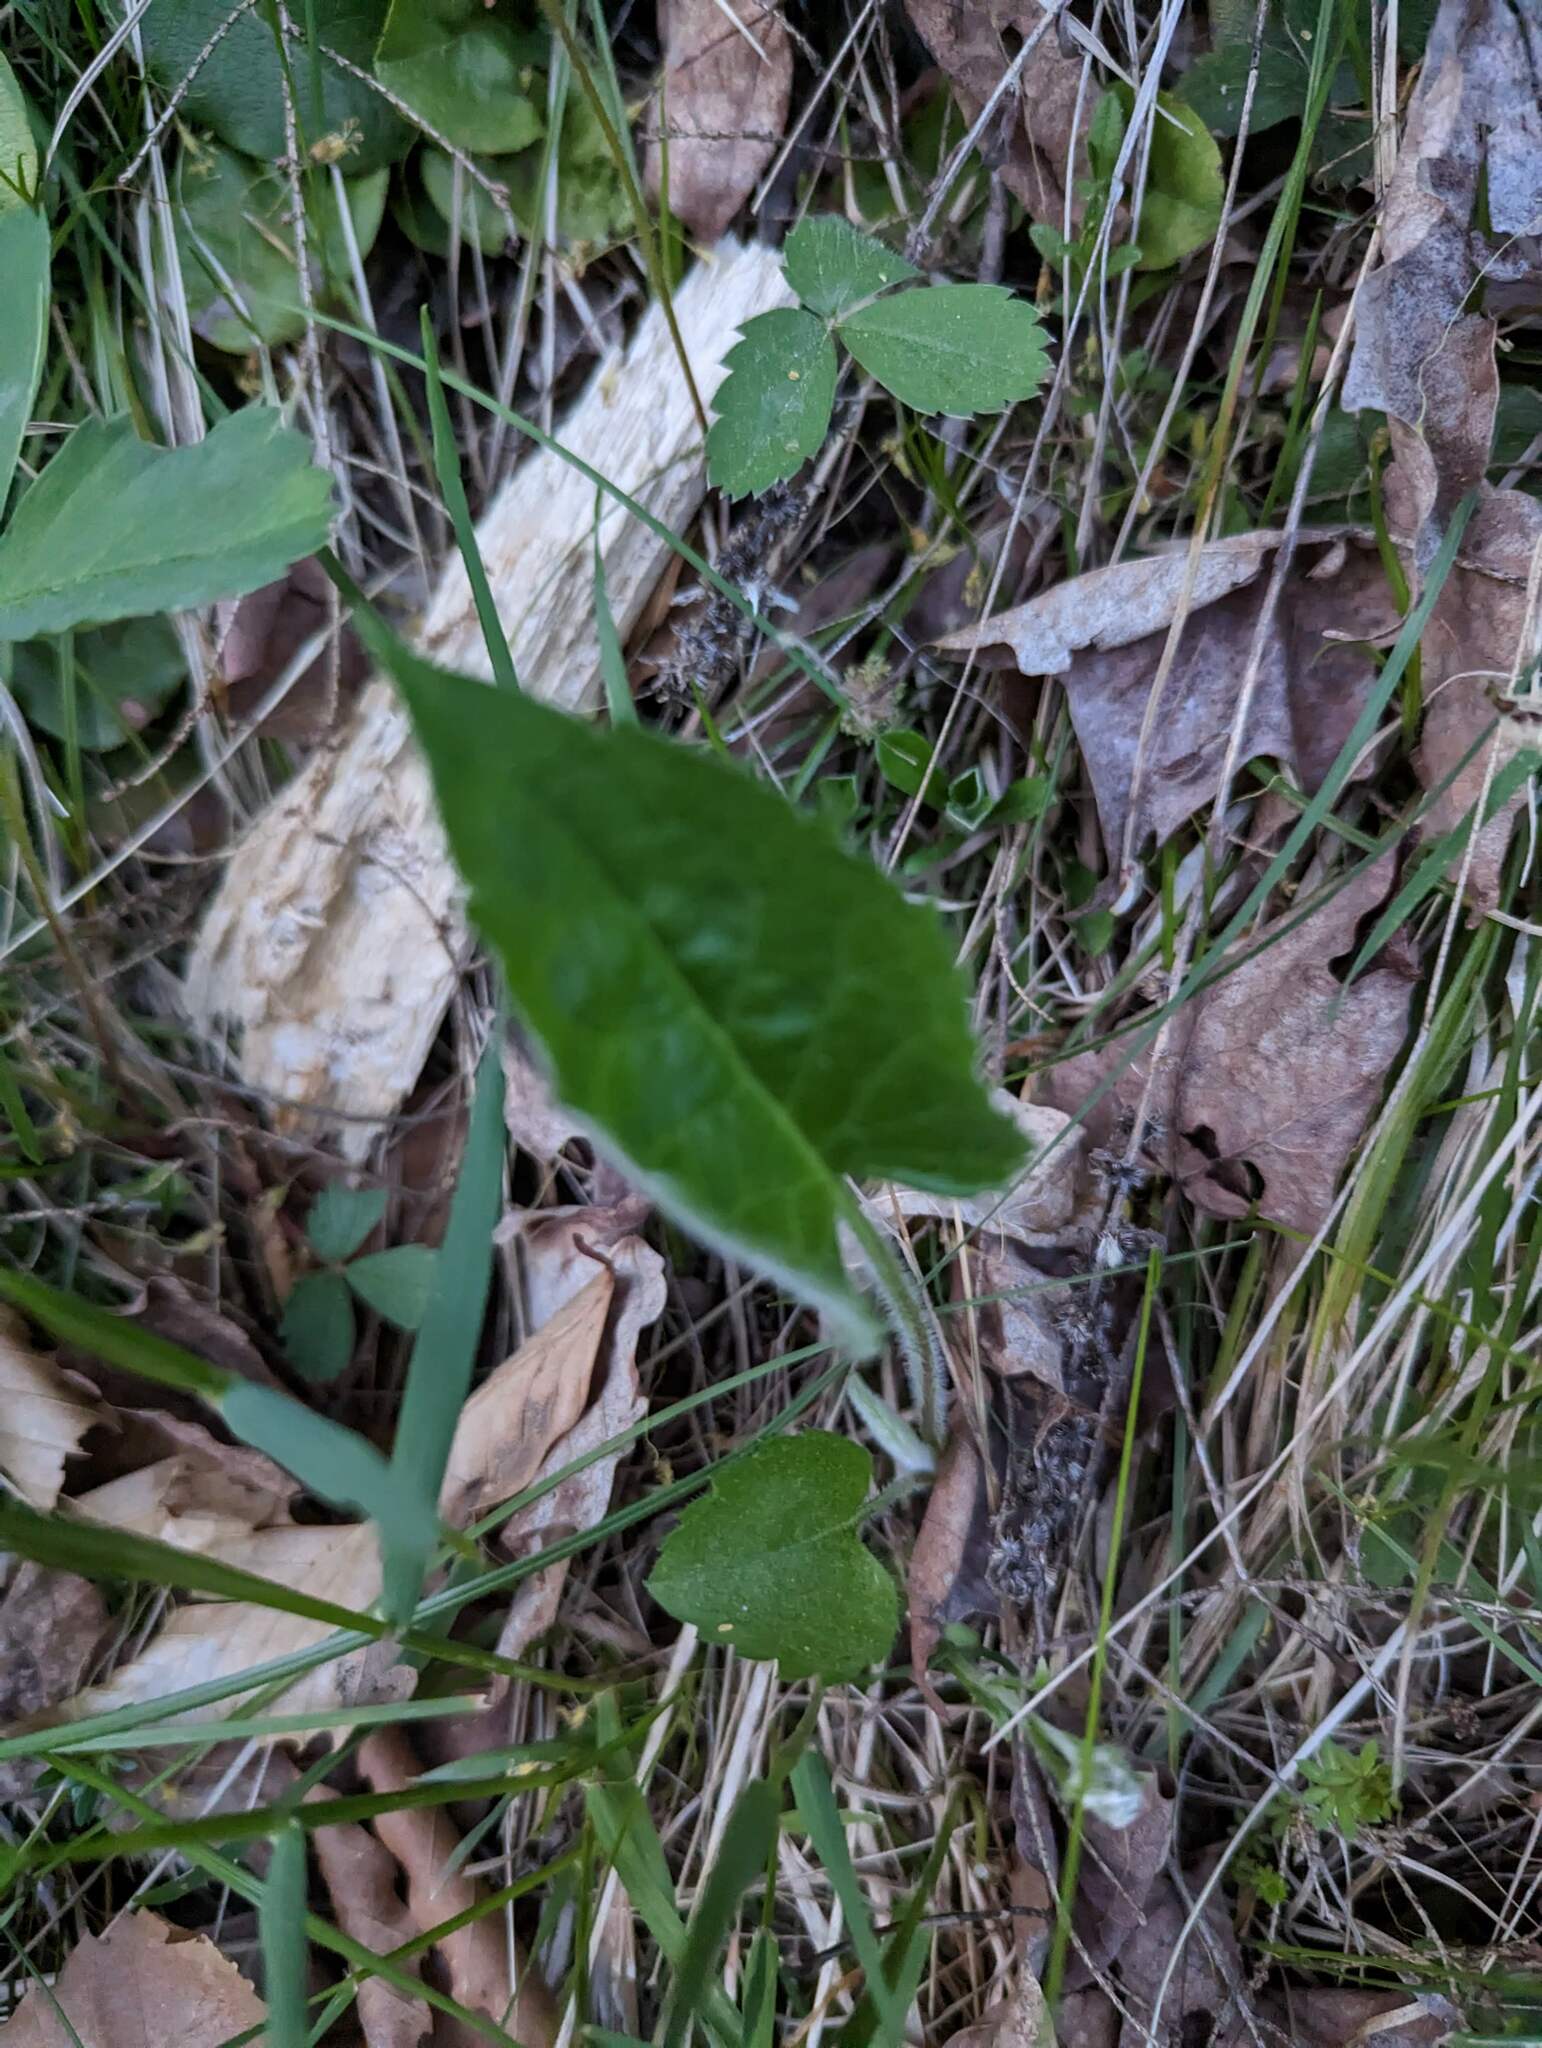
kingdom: Plantae
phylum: Tracheophyta
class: Magnoliopsida
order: Asterales
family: Asteraceae
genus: Eurybia
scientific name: Eurybia macrophylla
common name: Big-leaved aster
